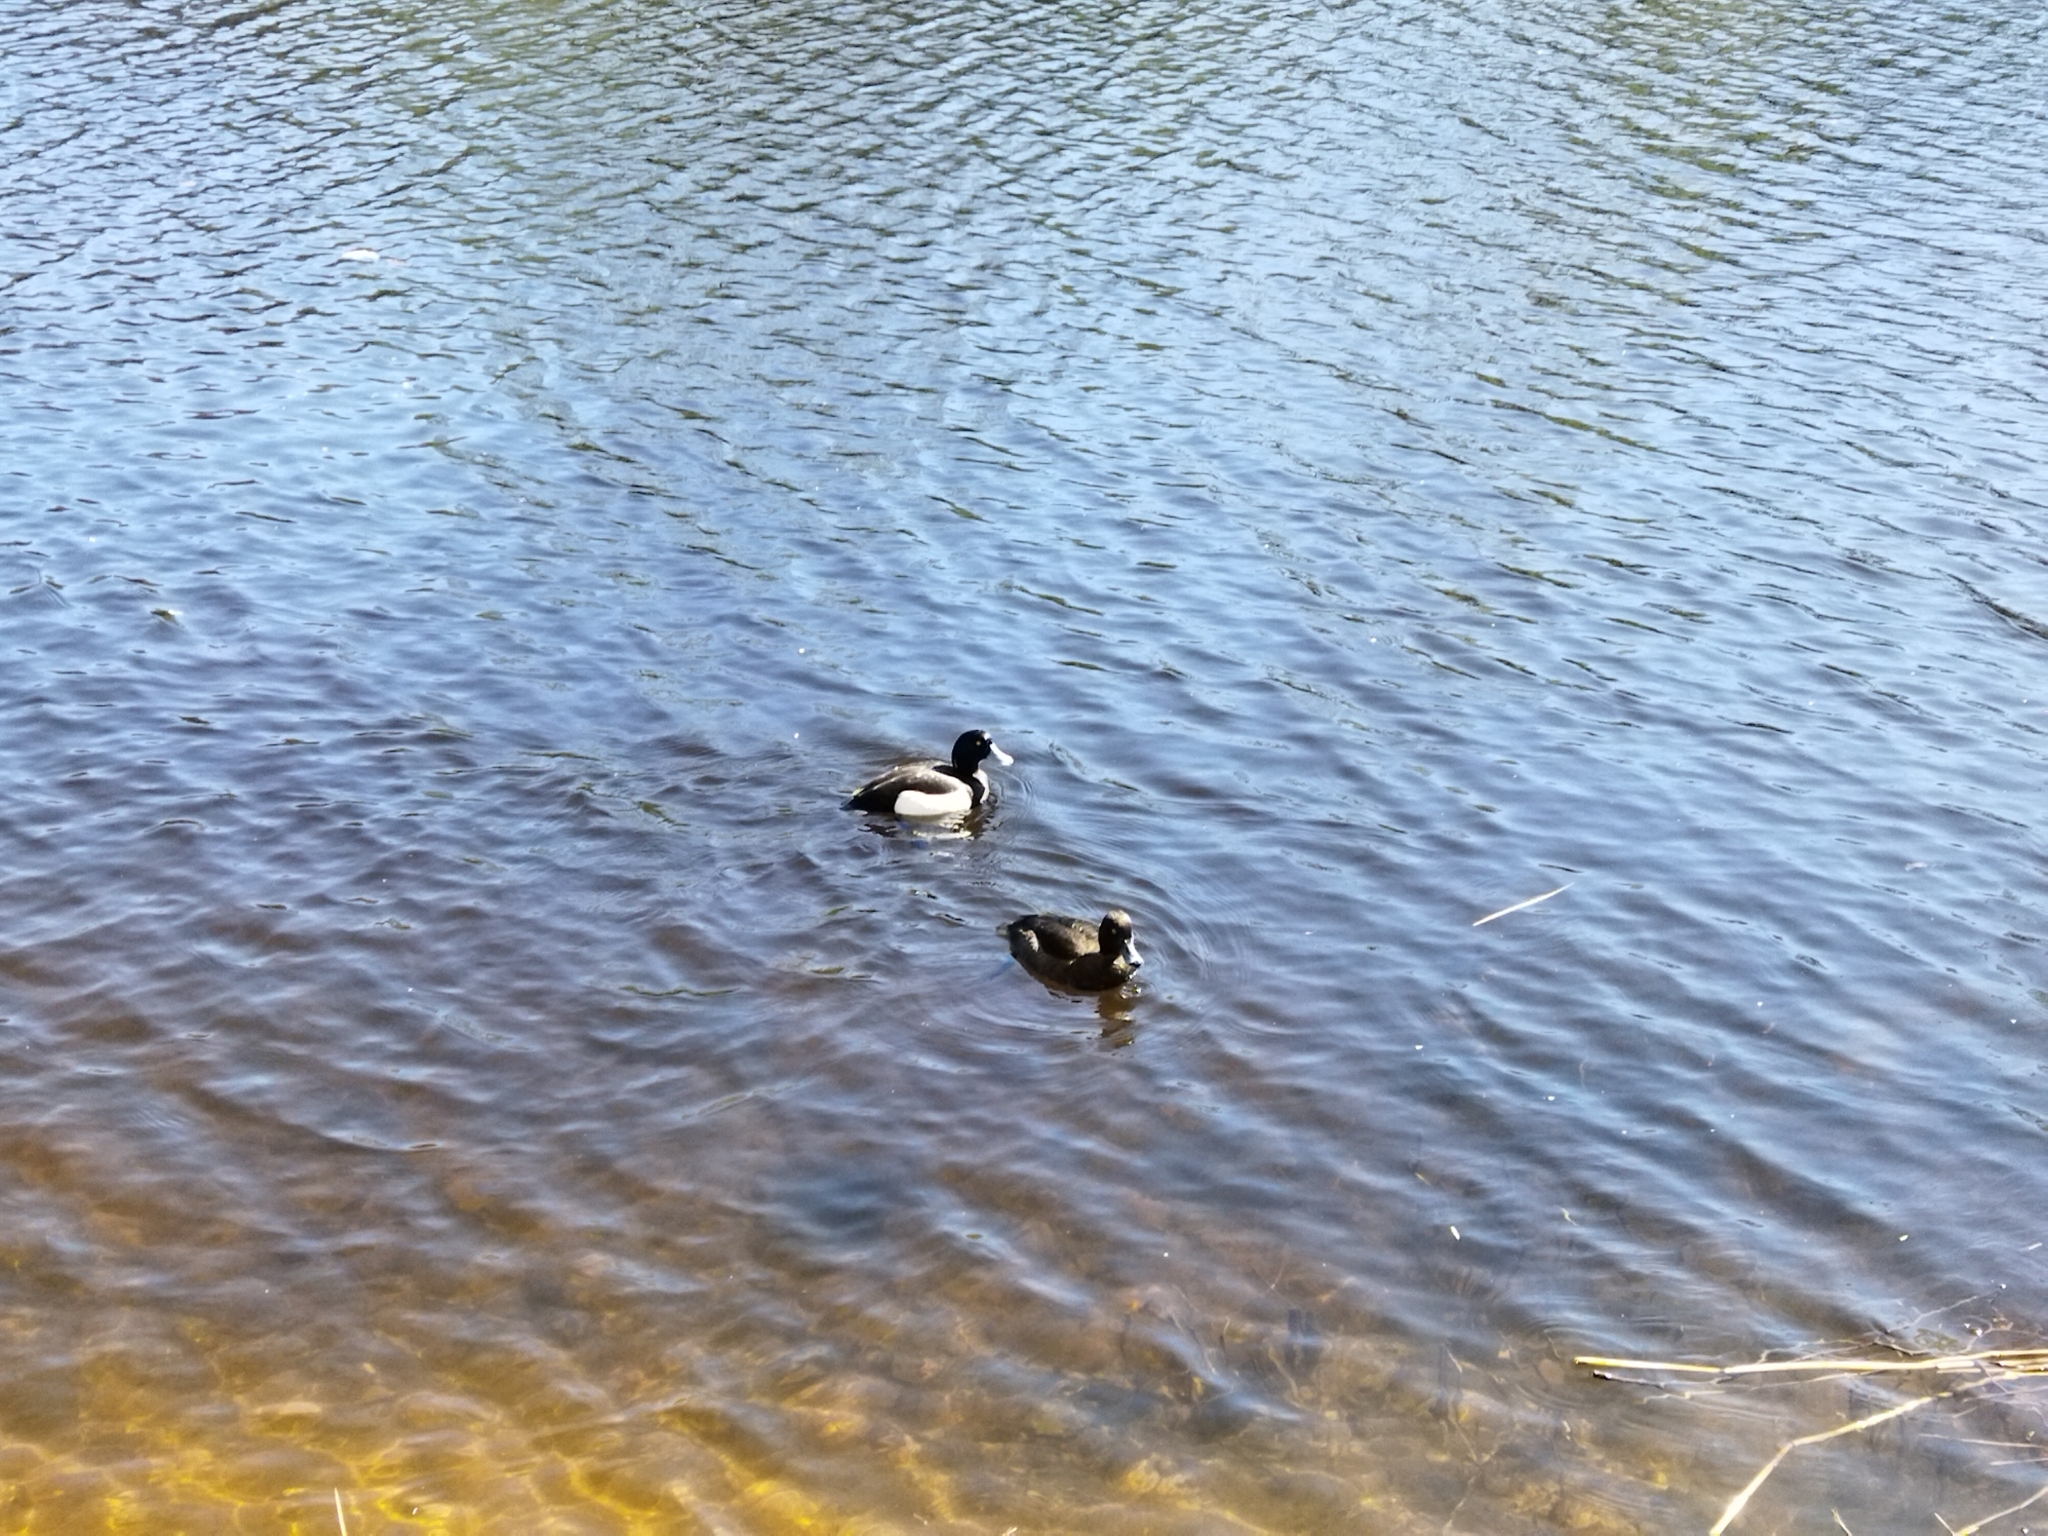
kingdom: Animalia
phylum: Chordata
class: Aves
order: Anseriformes
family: Anatidae
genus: Aythya
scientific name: Aythya fuligula
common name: Tufted duck
